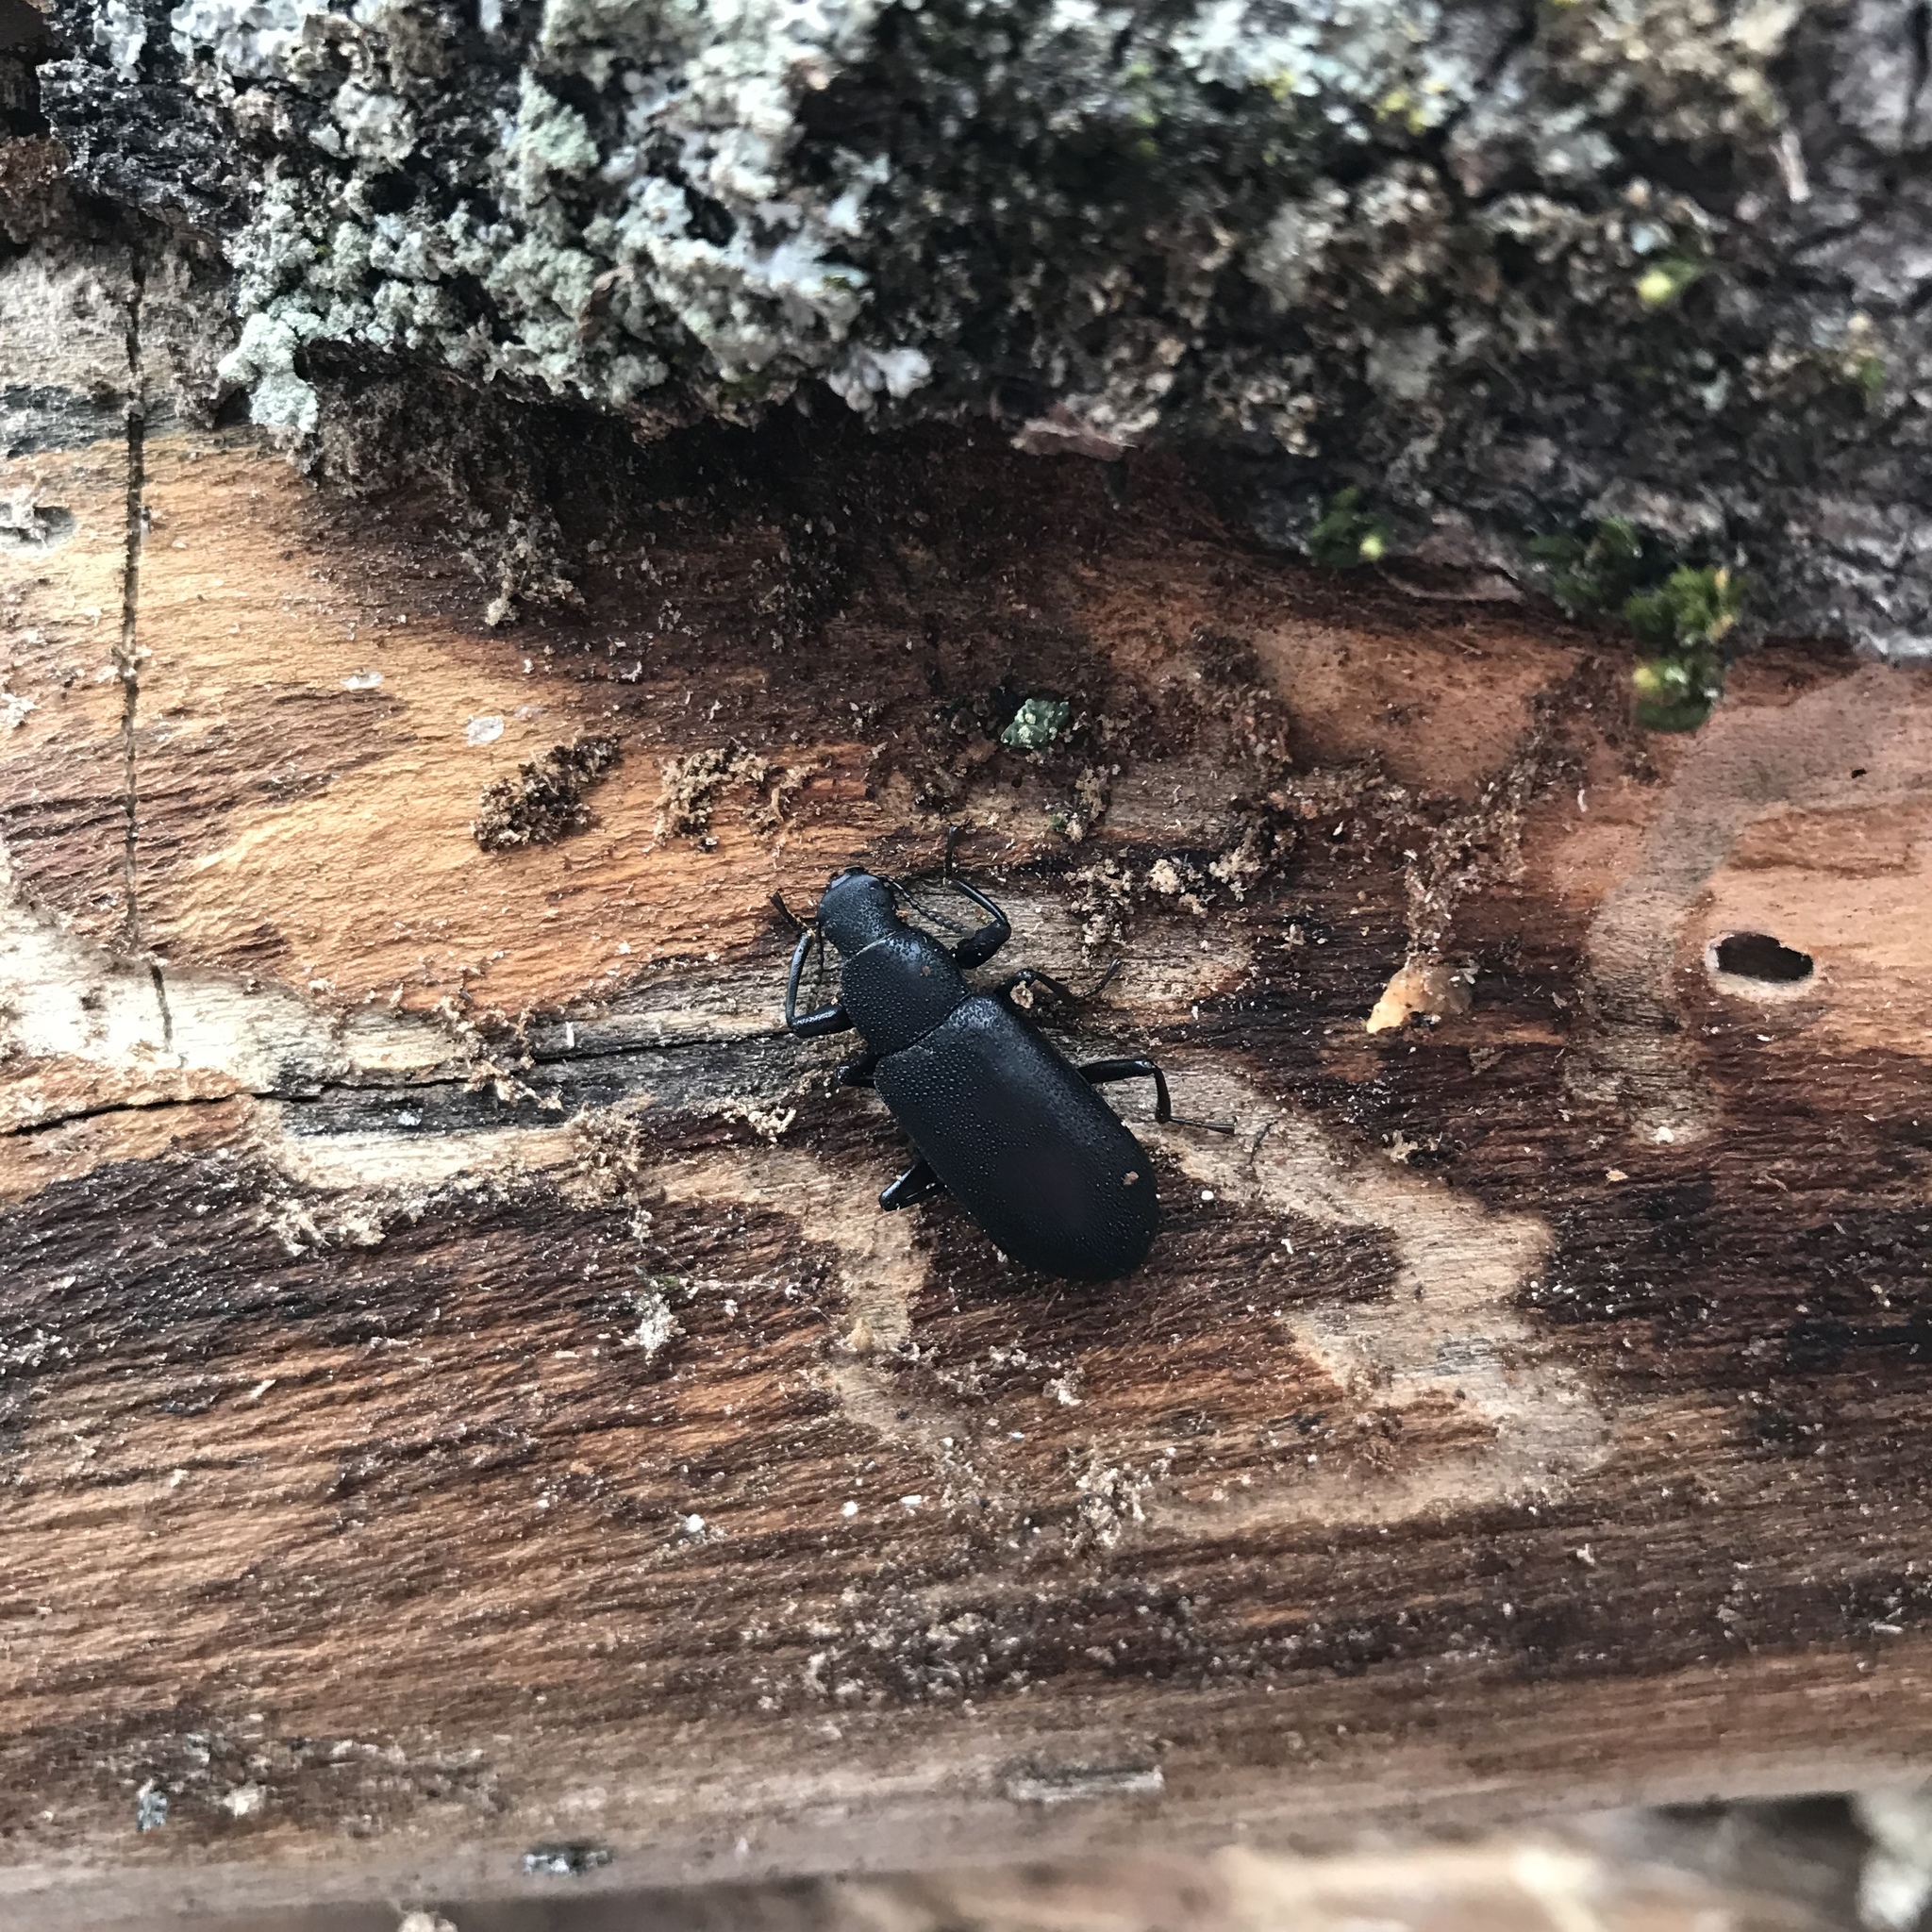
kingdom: Animalia
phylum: Arthropoda
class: Insecta
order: Coleoptera
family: Tenebrionidae
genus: Alobates
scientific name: Alobates
